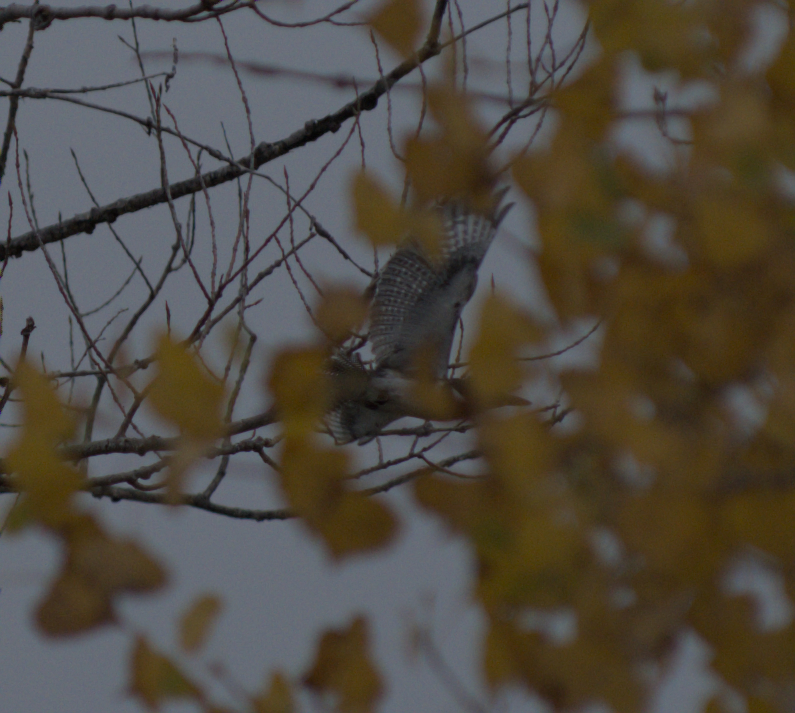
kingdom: Animalia
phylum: Chordata
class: Aves
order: Coraciiformes
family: Alcedinidae
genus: Megaceryle
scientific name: Megaceryle alcyon
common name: Belted kingfisher
